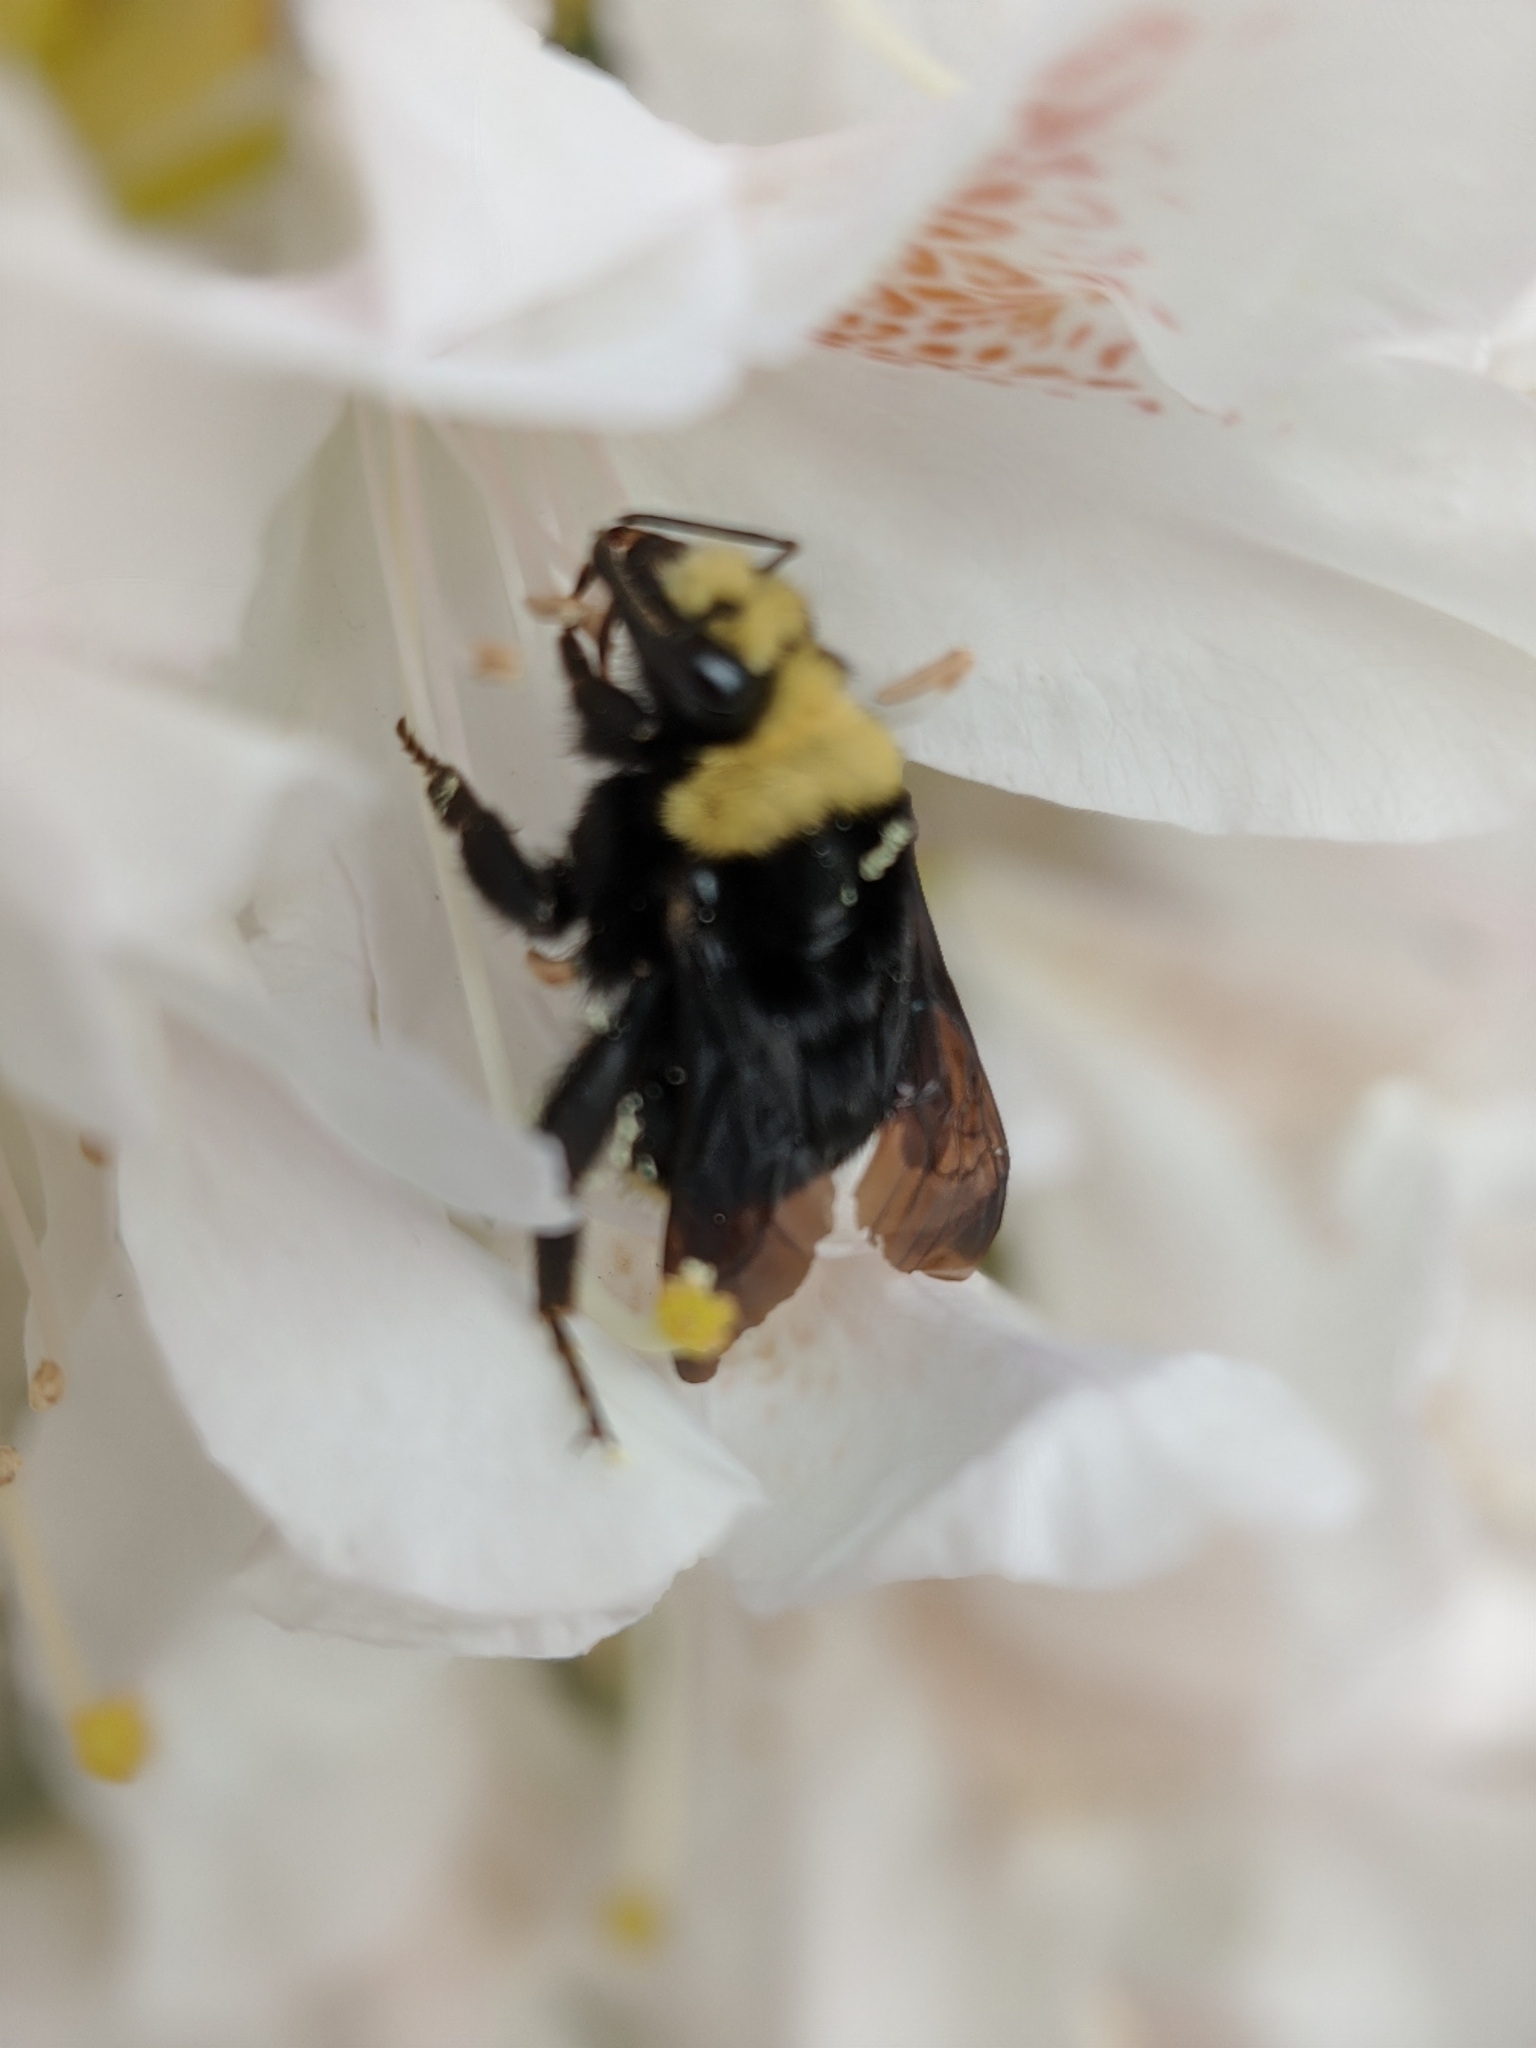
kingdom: Animalia
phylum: Arthropoda
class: Insecta
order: Hymenoptera
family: Apidae
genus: Bombus
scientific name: Bombus vosnesenskii
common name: Vosnesensky bumble bee
